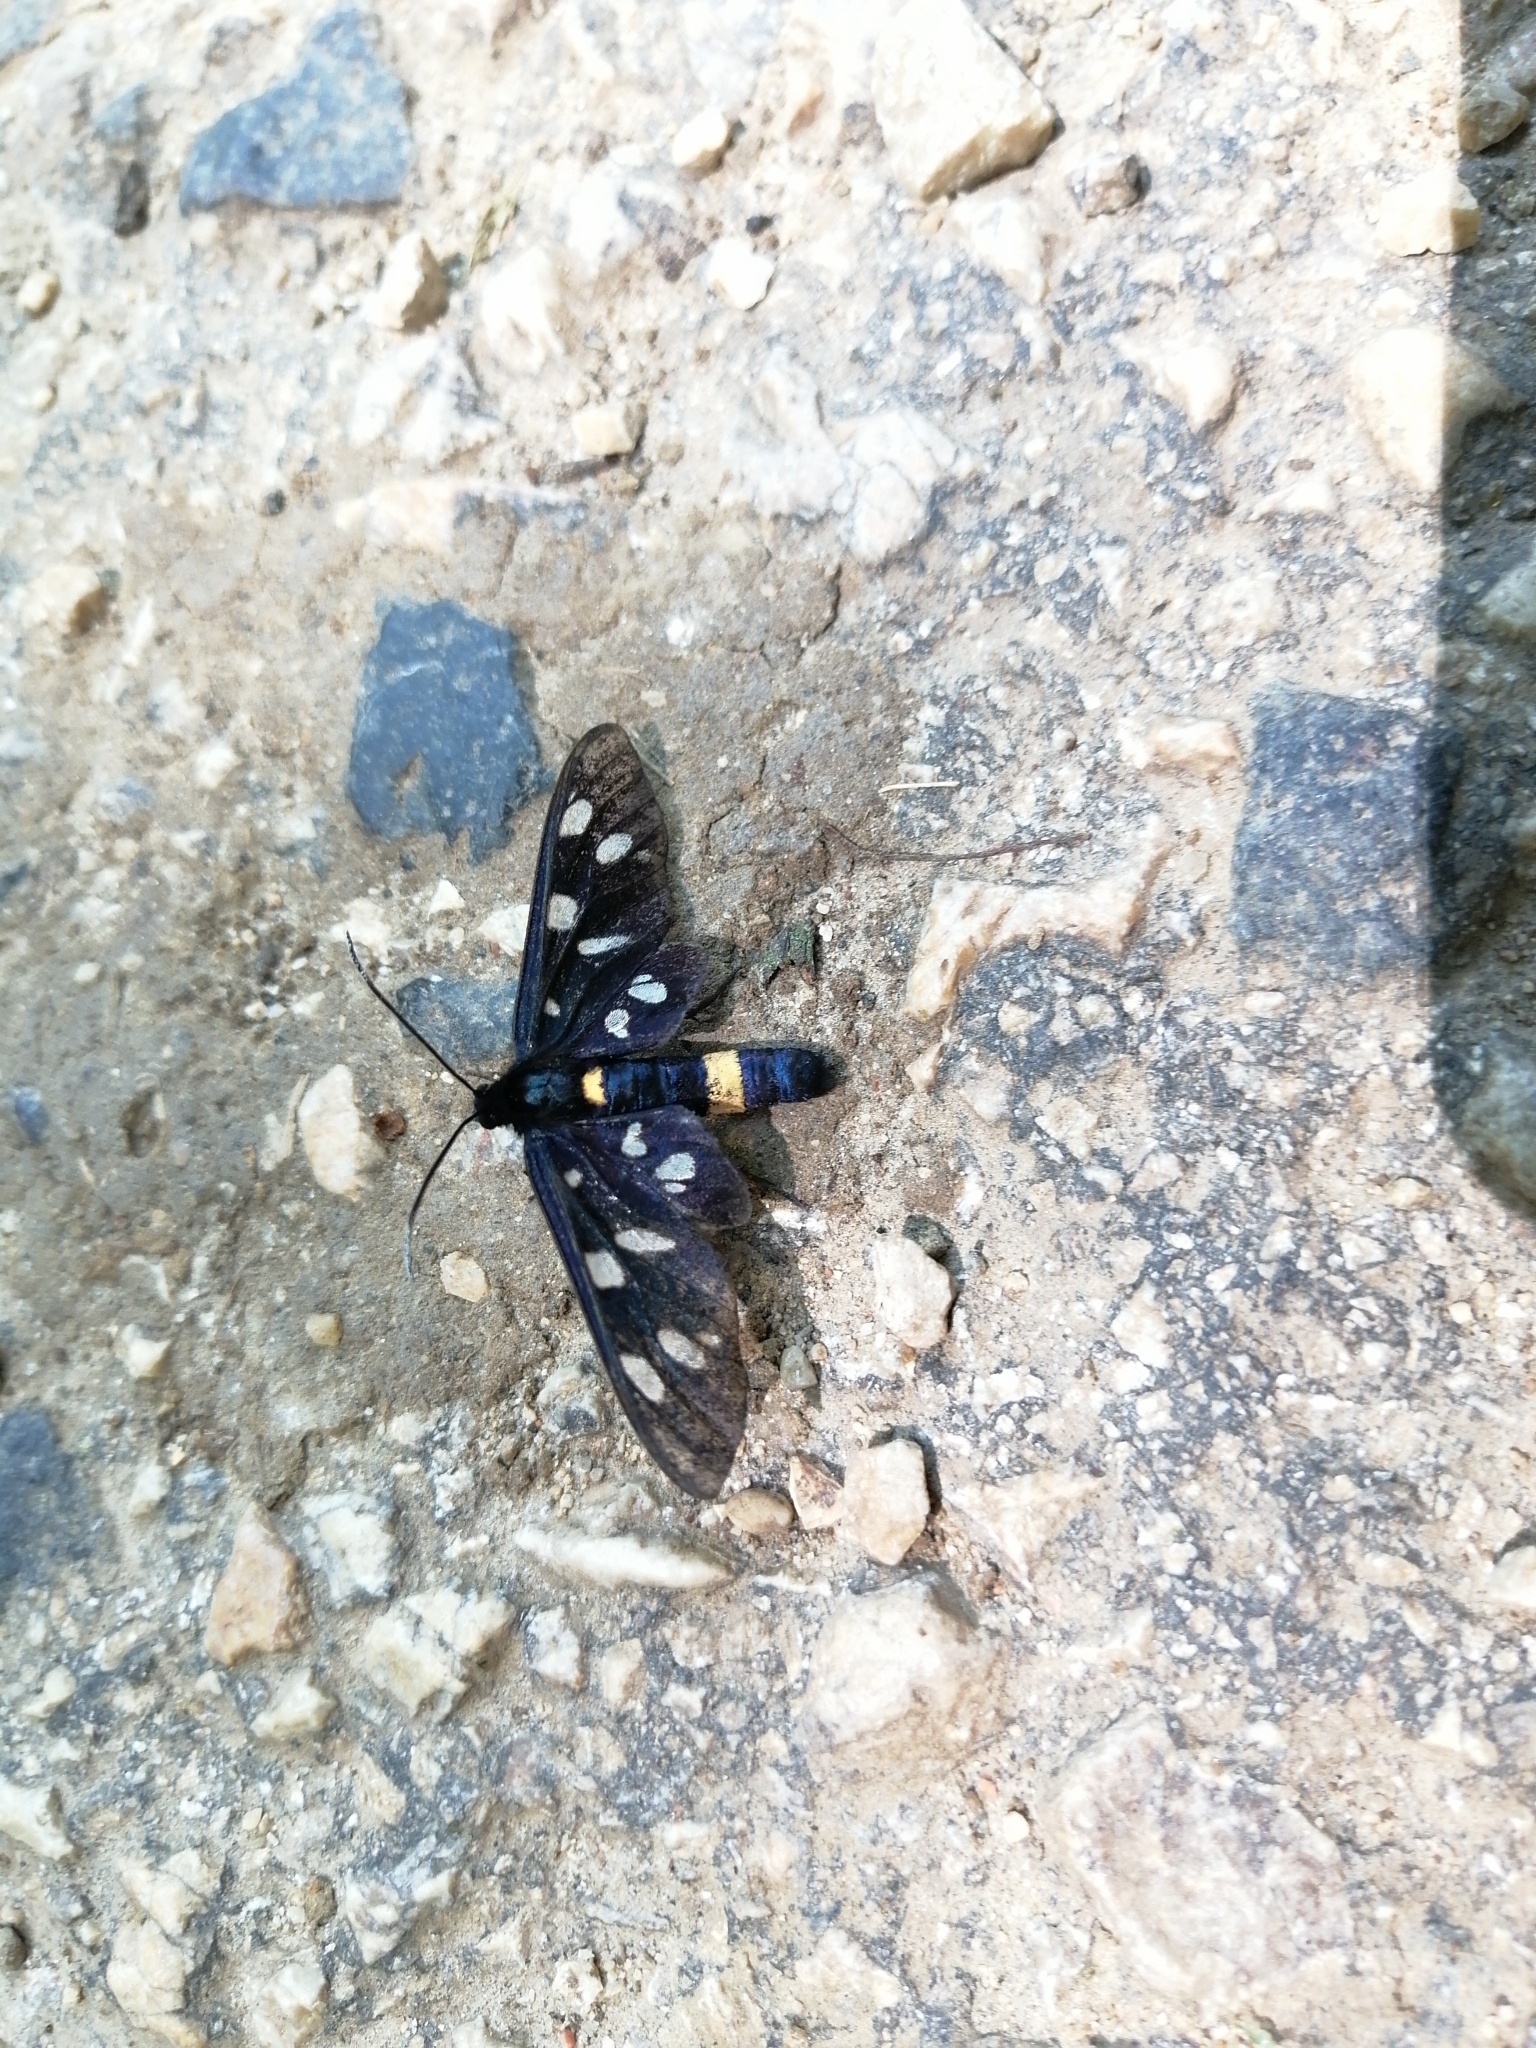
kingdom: Animalia
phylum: Arthropoda
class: Insecta
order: Lepidoptera
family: Erebidae
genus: Amata
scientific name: Amata phegea
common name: Nine-spotted
